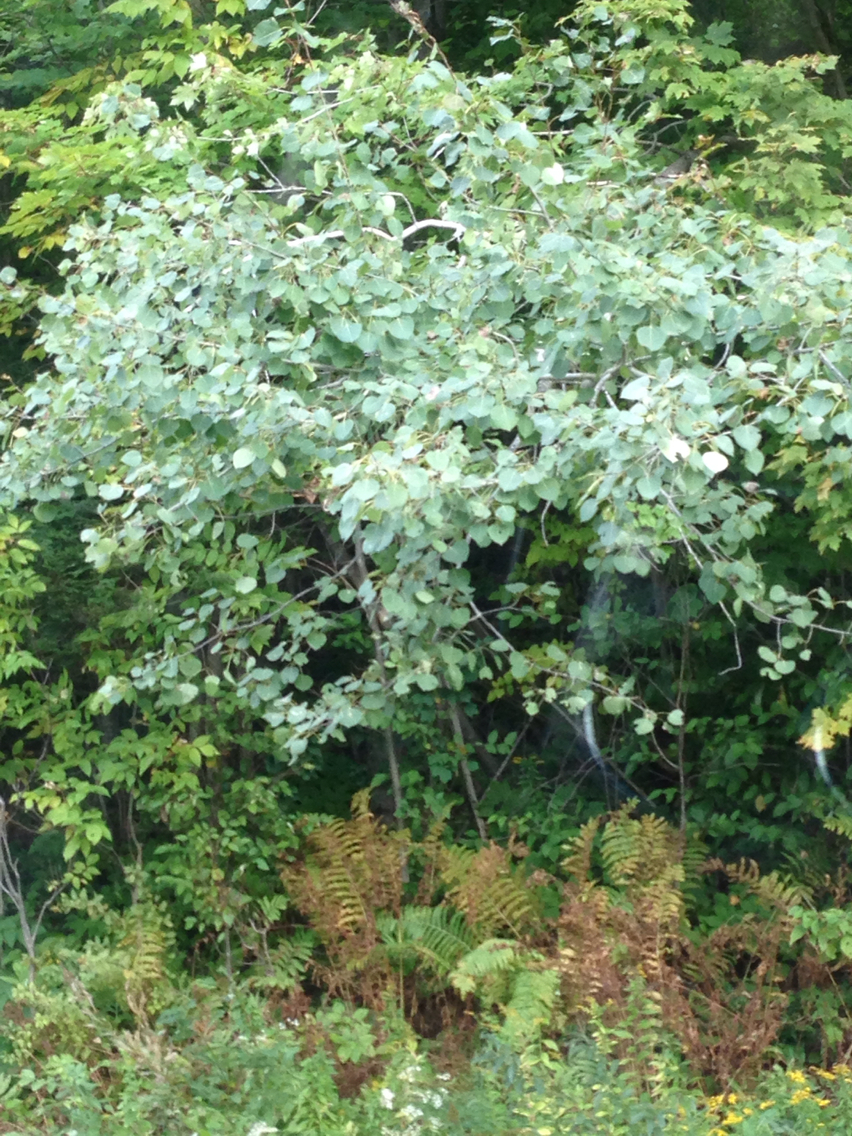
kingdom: Plantae
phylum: Tracheophyta
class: Magnoliopsida
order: Malpighiales
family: Salicaceae
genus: Populus
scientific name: Populus tremuloides
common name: Quaking aspen
